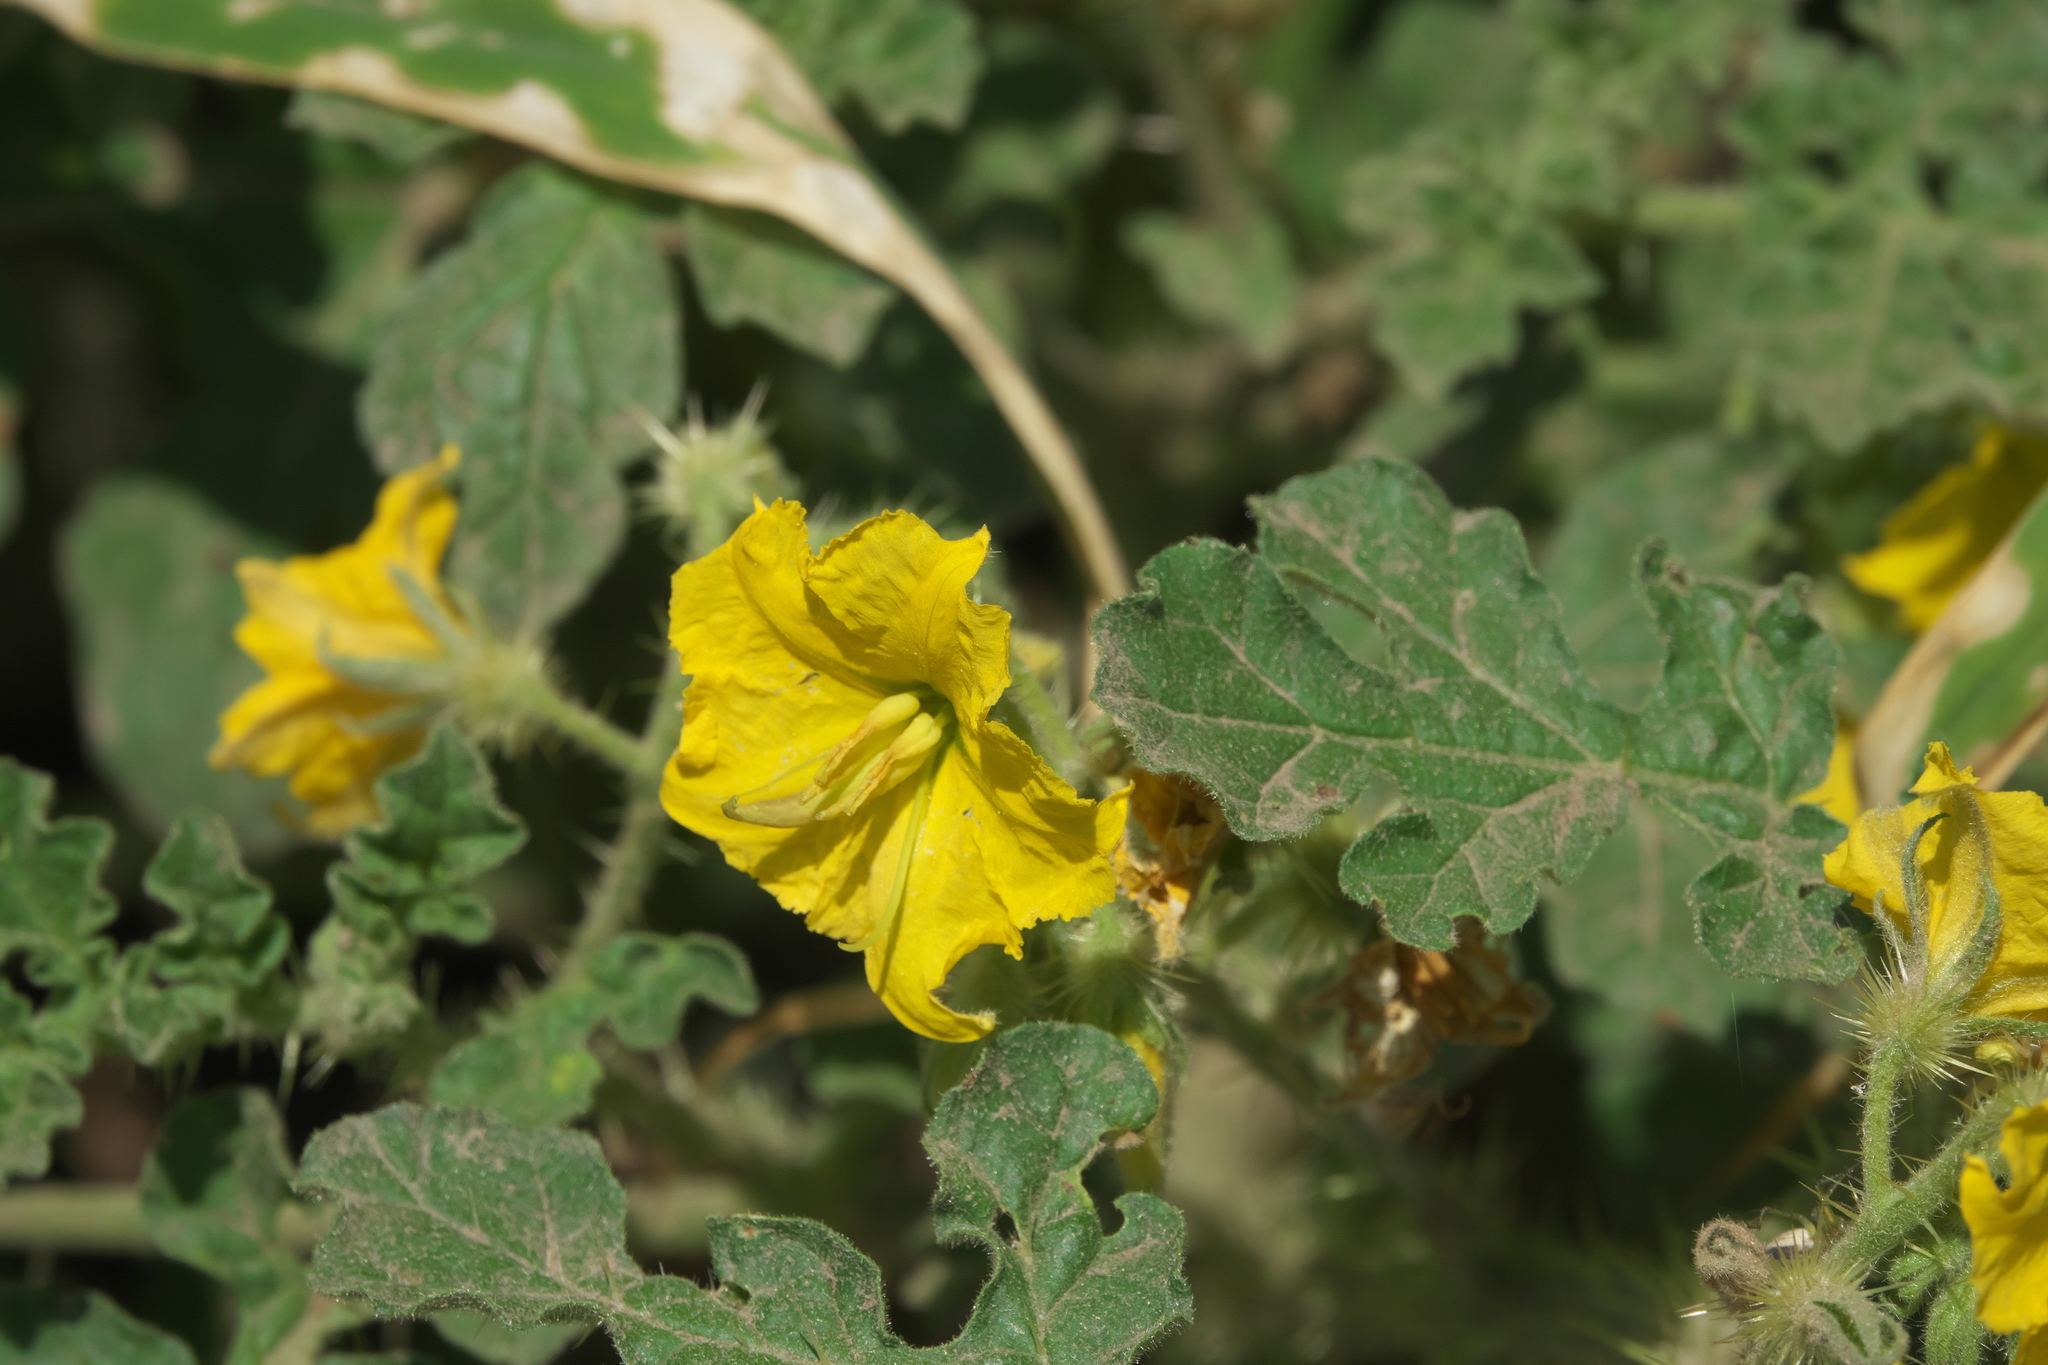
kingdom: Plantae
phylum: Tracheophyta
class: Magnoliopsida
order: Solanales
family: Solanaceae
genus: Solanum
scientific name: Solanum angustifolium
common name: Buffalobur nightshade
